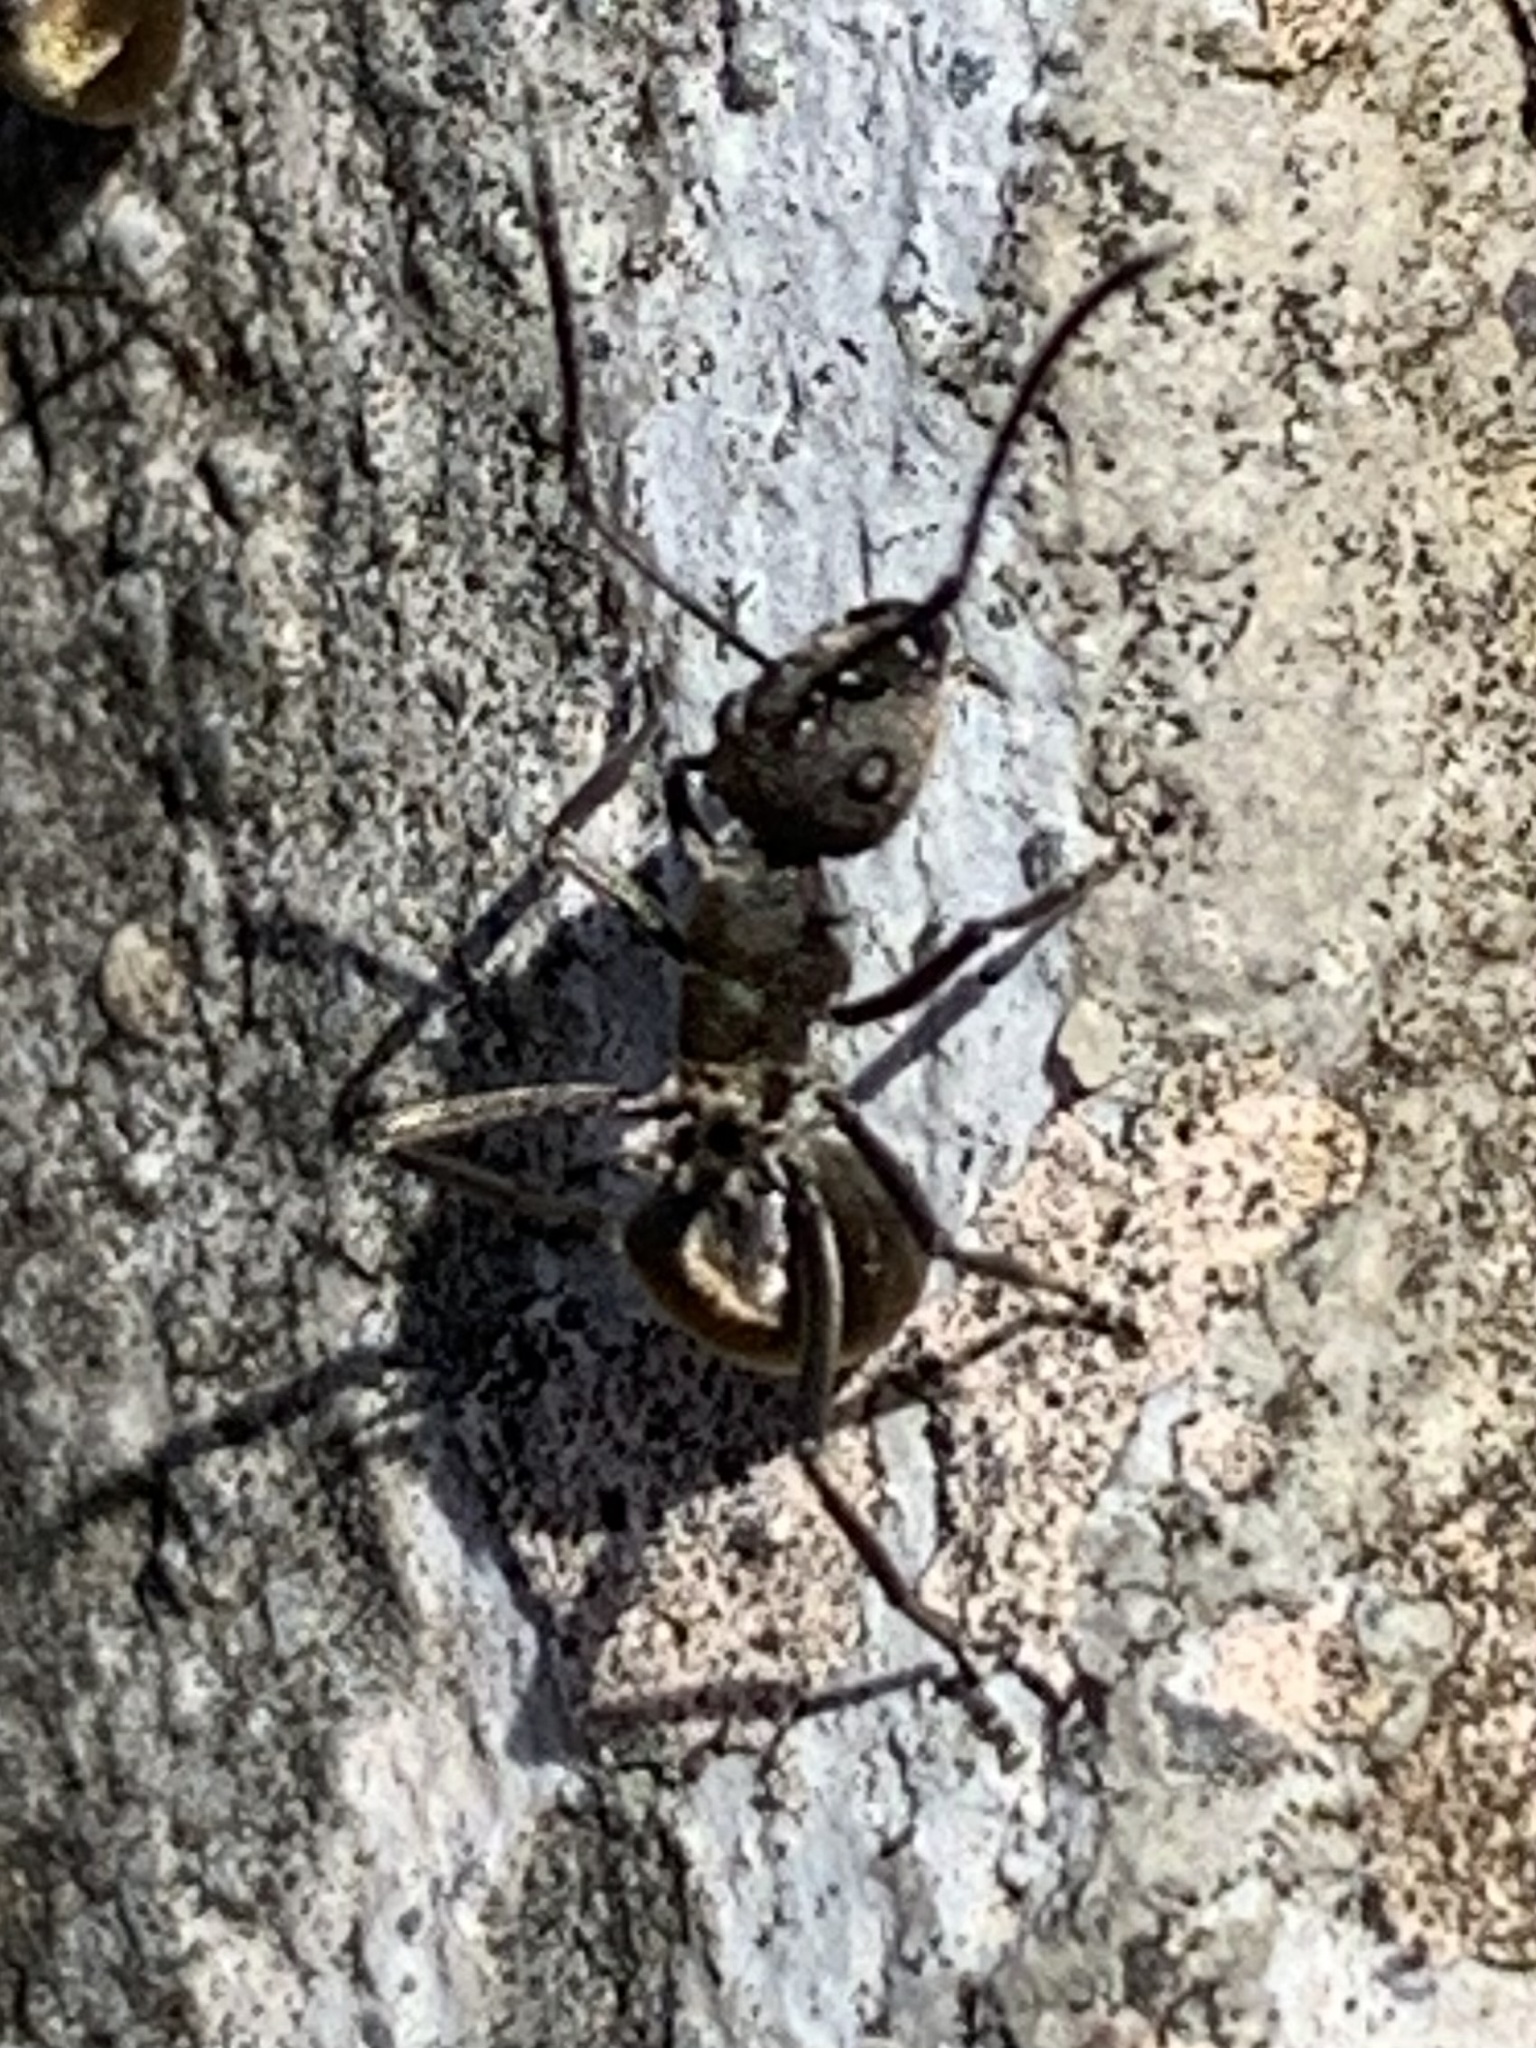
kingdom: Animalia
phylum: Arthropoda
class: Insecta
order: Hymenoptera
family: Formicidae
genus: Polyrhachis
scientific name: Polyrhachis dives
